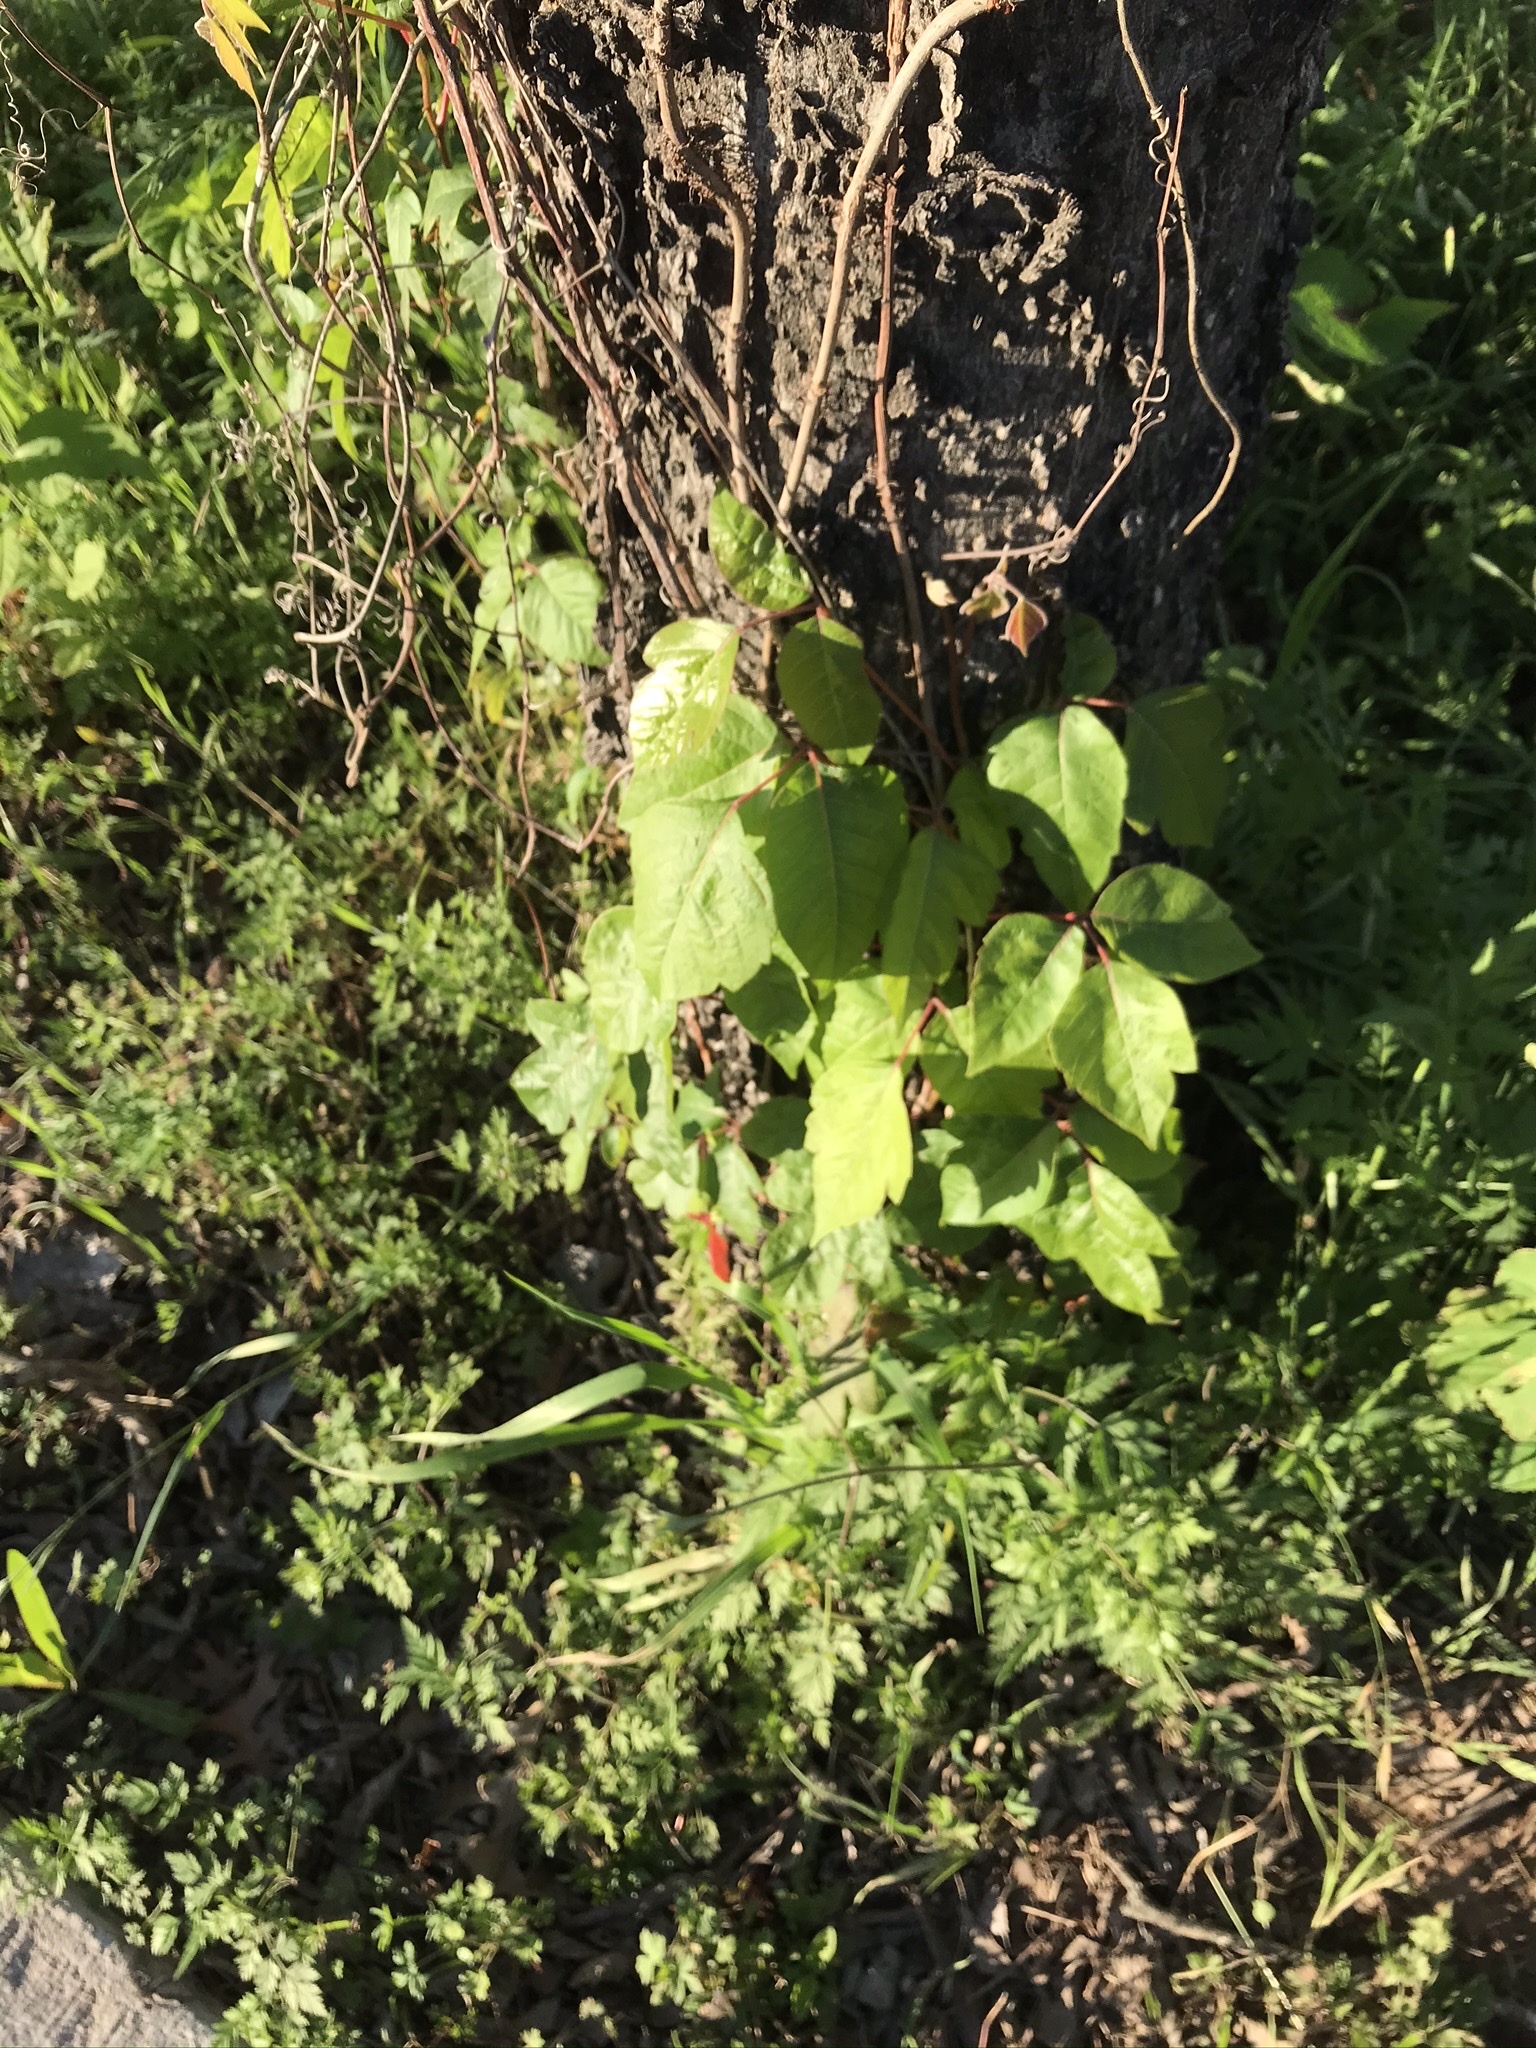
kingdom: Plantae
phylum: Tracheophyta
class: Magnoliopsida
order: Sapindales
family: Anacardiaceae
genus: Toxicodendron
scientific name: Toxicodendron radicans
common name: Poison ivy
